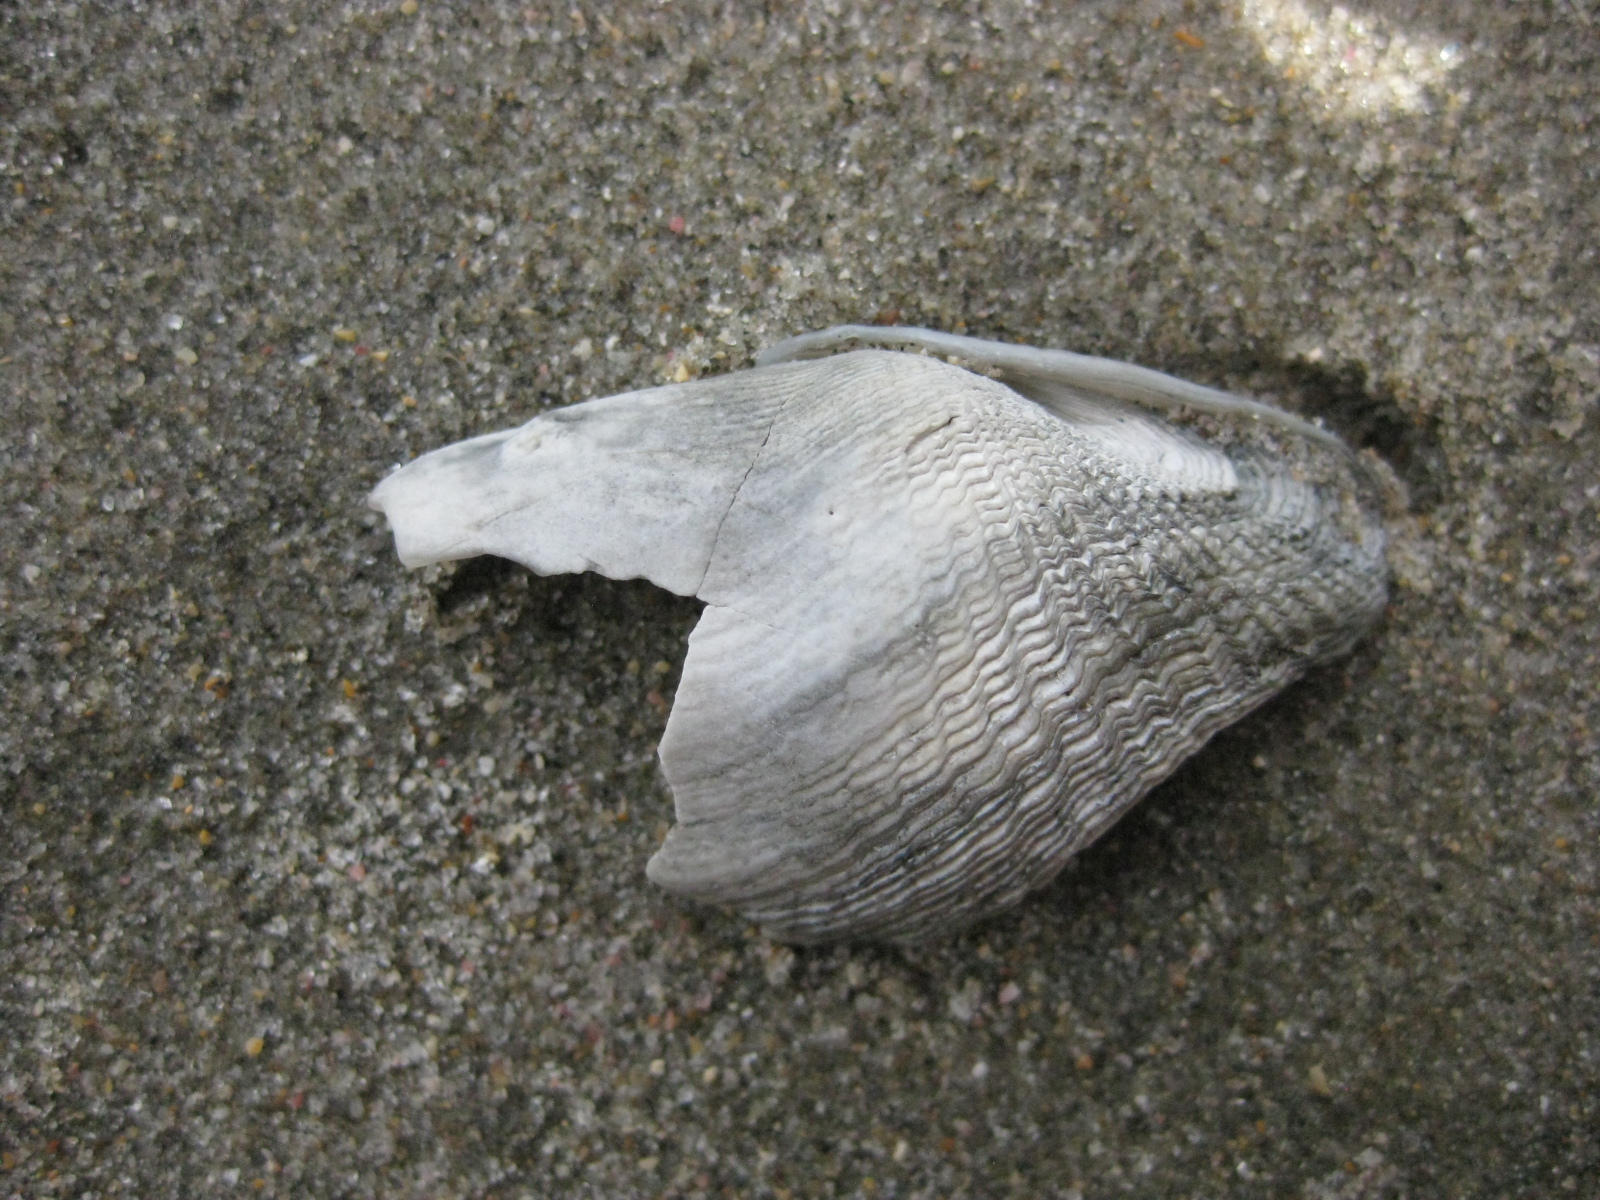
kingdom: Animalia
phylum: Mollusca
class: Bivalvia
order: Myida
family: Pholadidae
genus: Barnea
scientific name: Barnea similis
